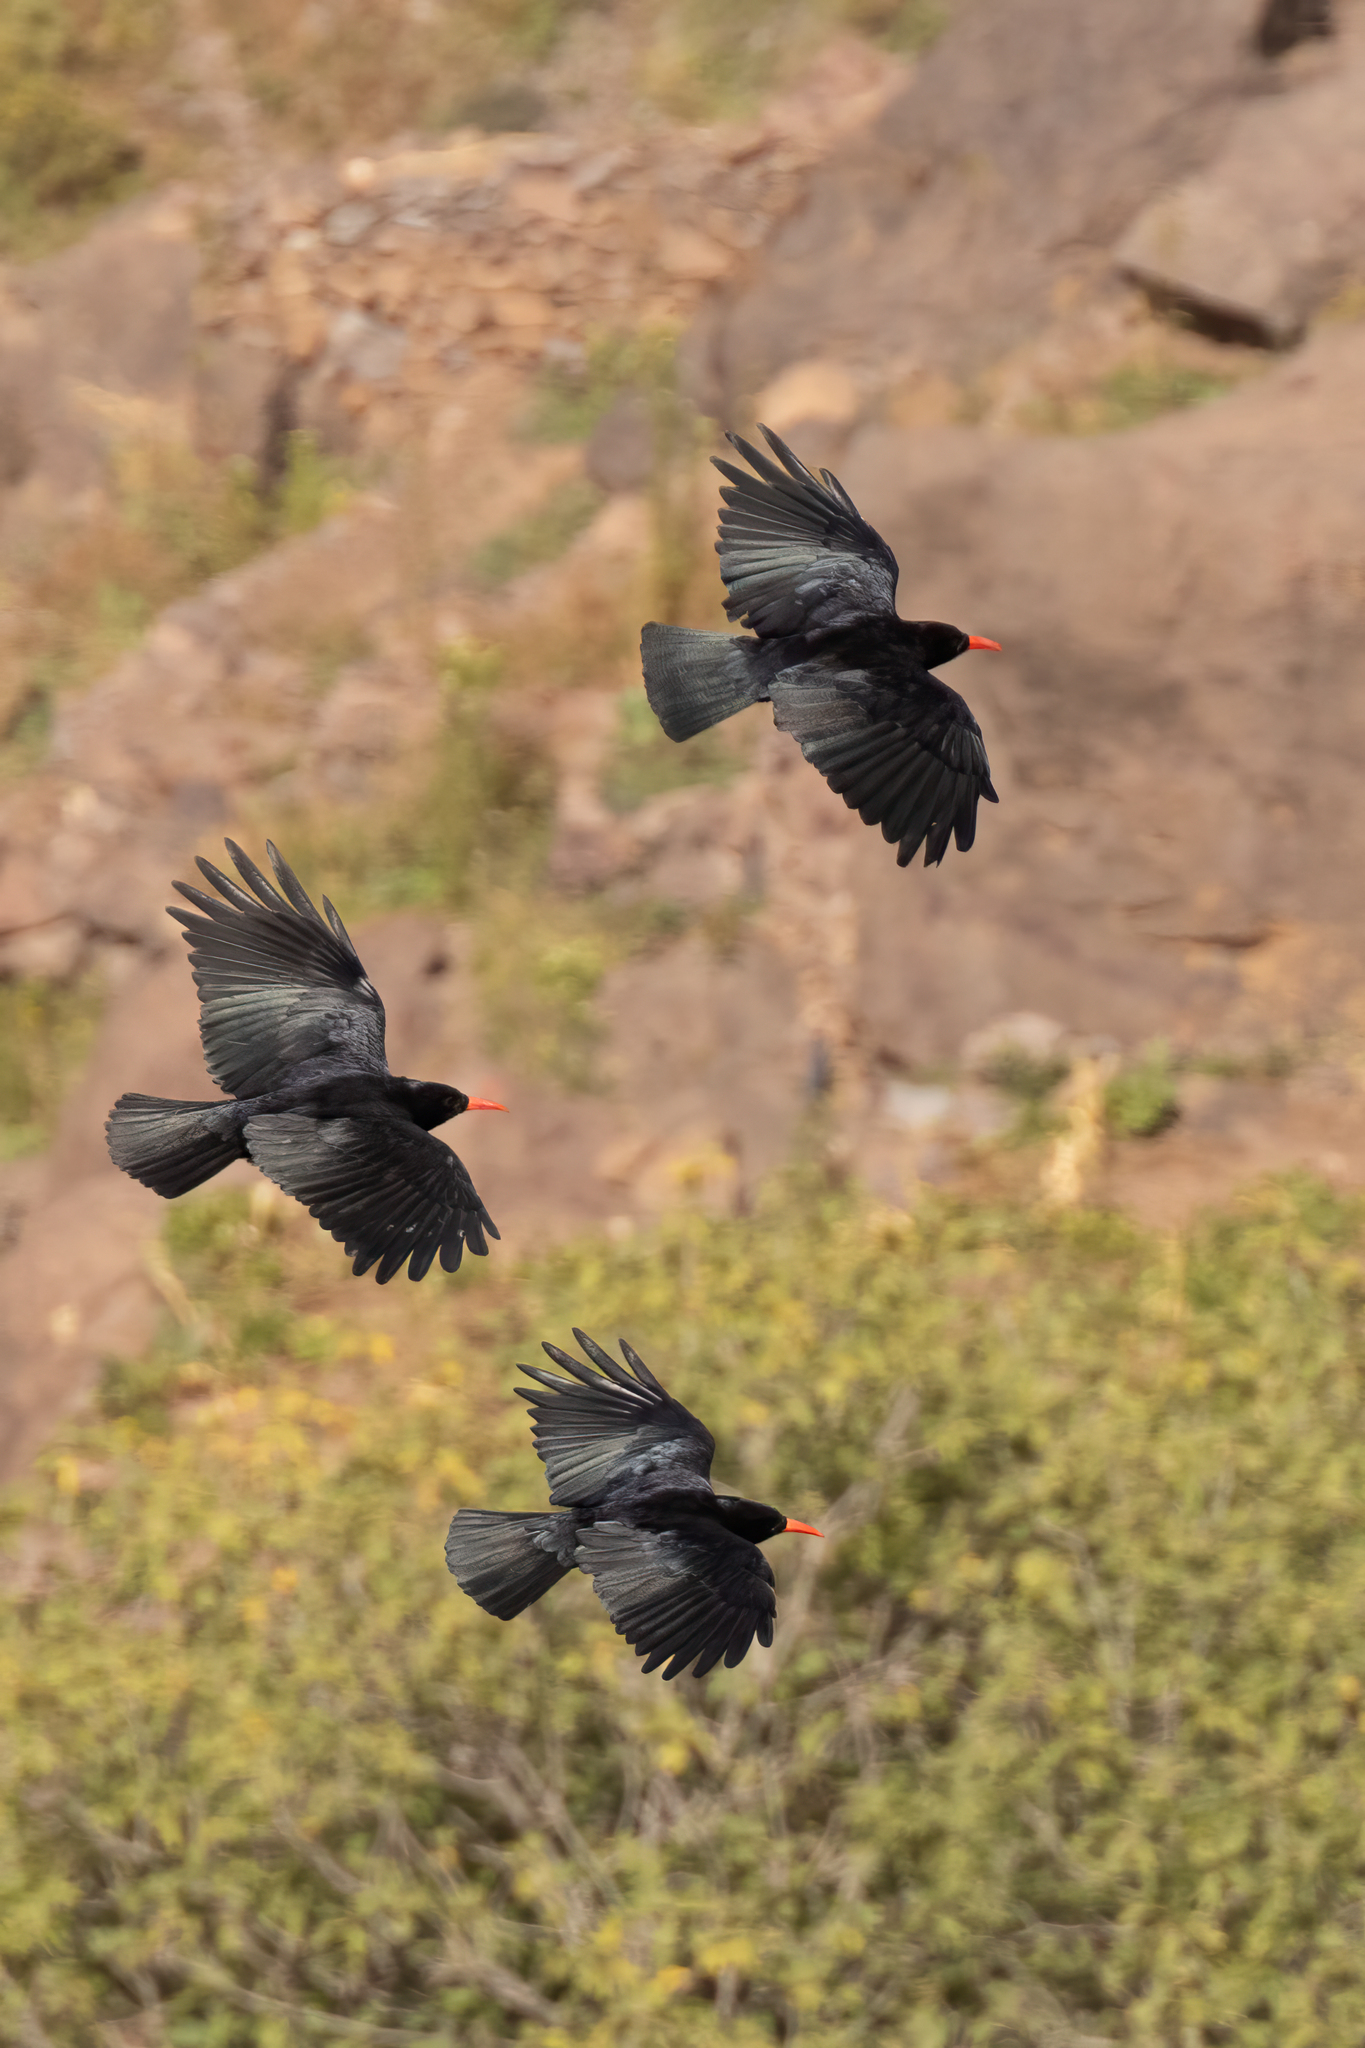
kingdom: Animalia
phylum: Chordata
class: Aves
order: Passeriformes
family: Corvidae
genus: Pyrrhocorax
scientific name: Pyrrhocorax pyrrhocorax
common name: Red-billed chough
